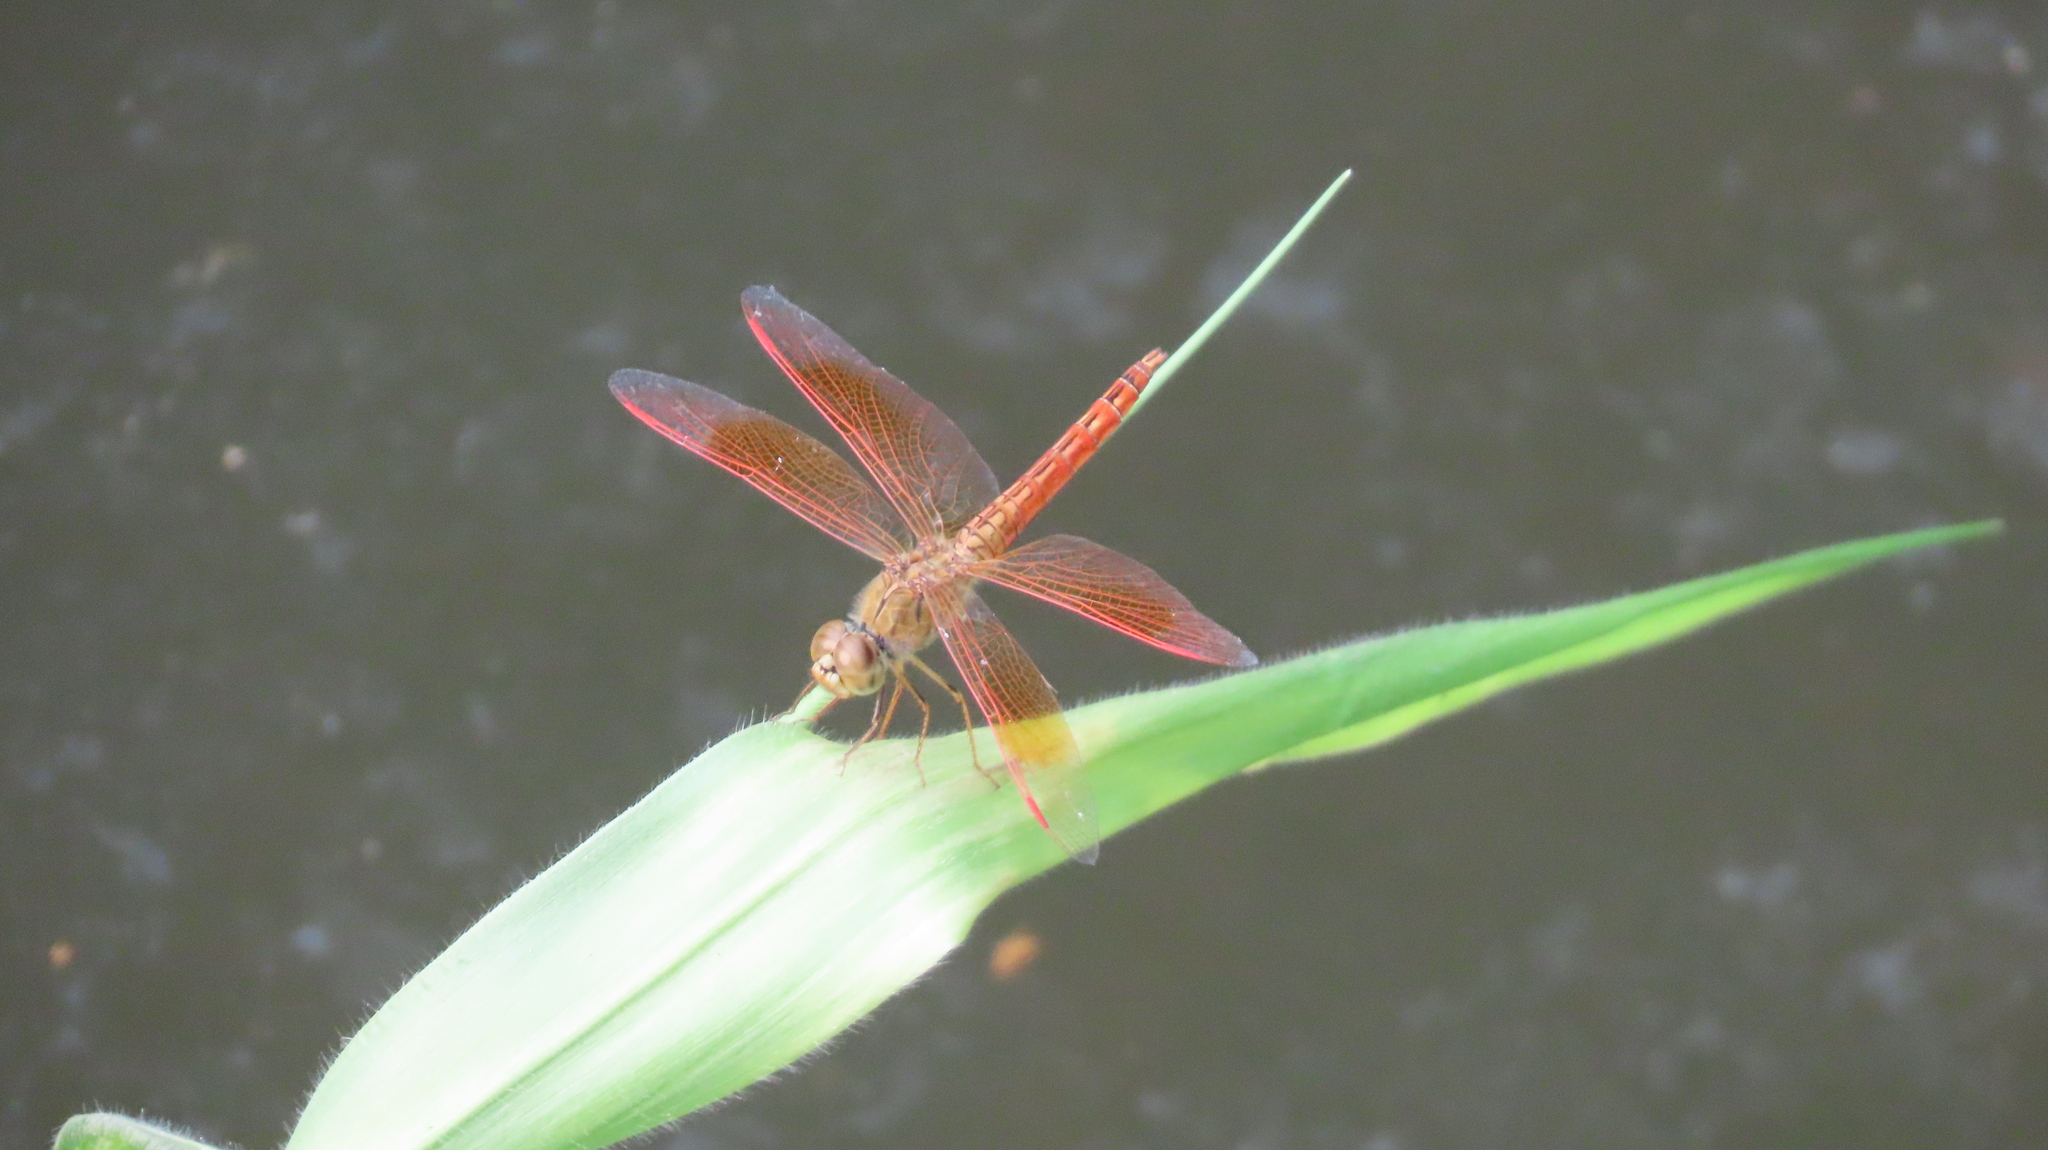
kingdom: Animalia
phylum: Arthropoda
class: Insecta
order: Odonata
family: Libellulidae
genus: Brachythemis
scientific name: Brachythemis contaminata
